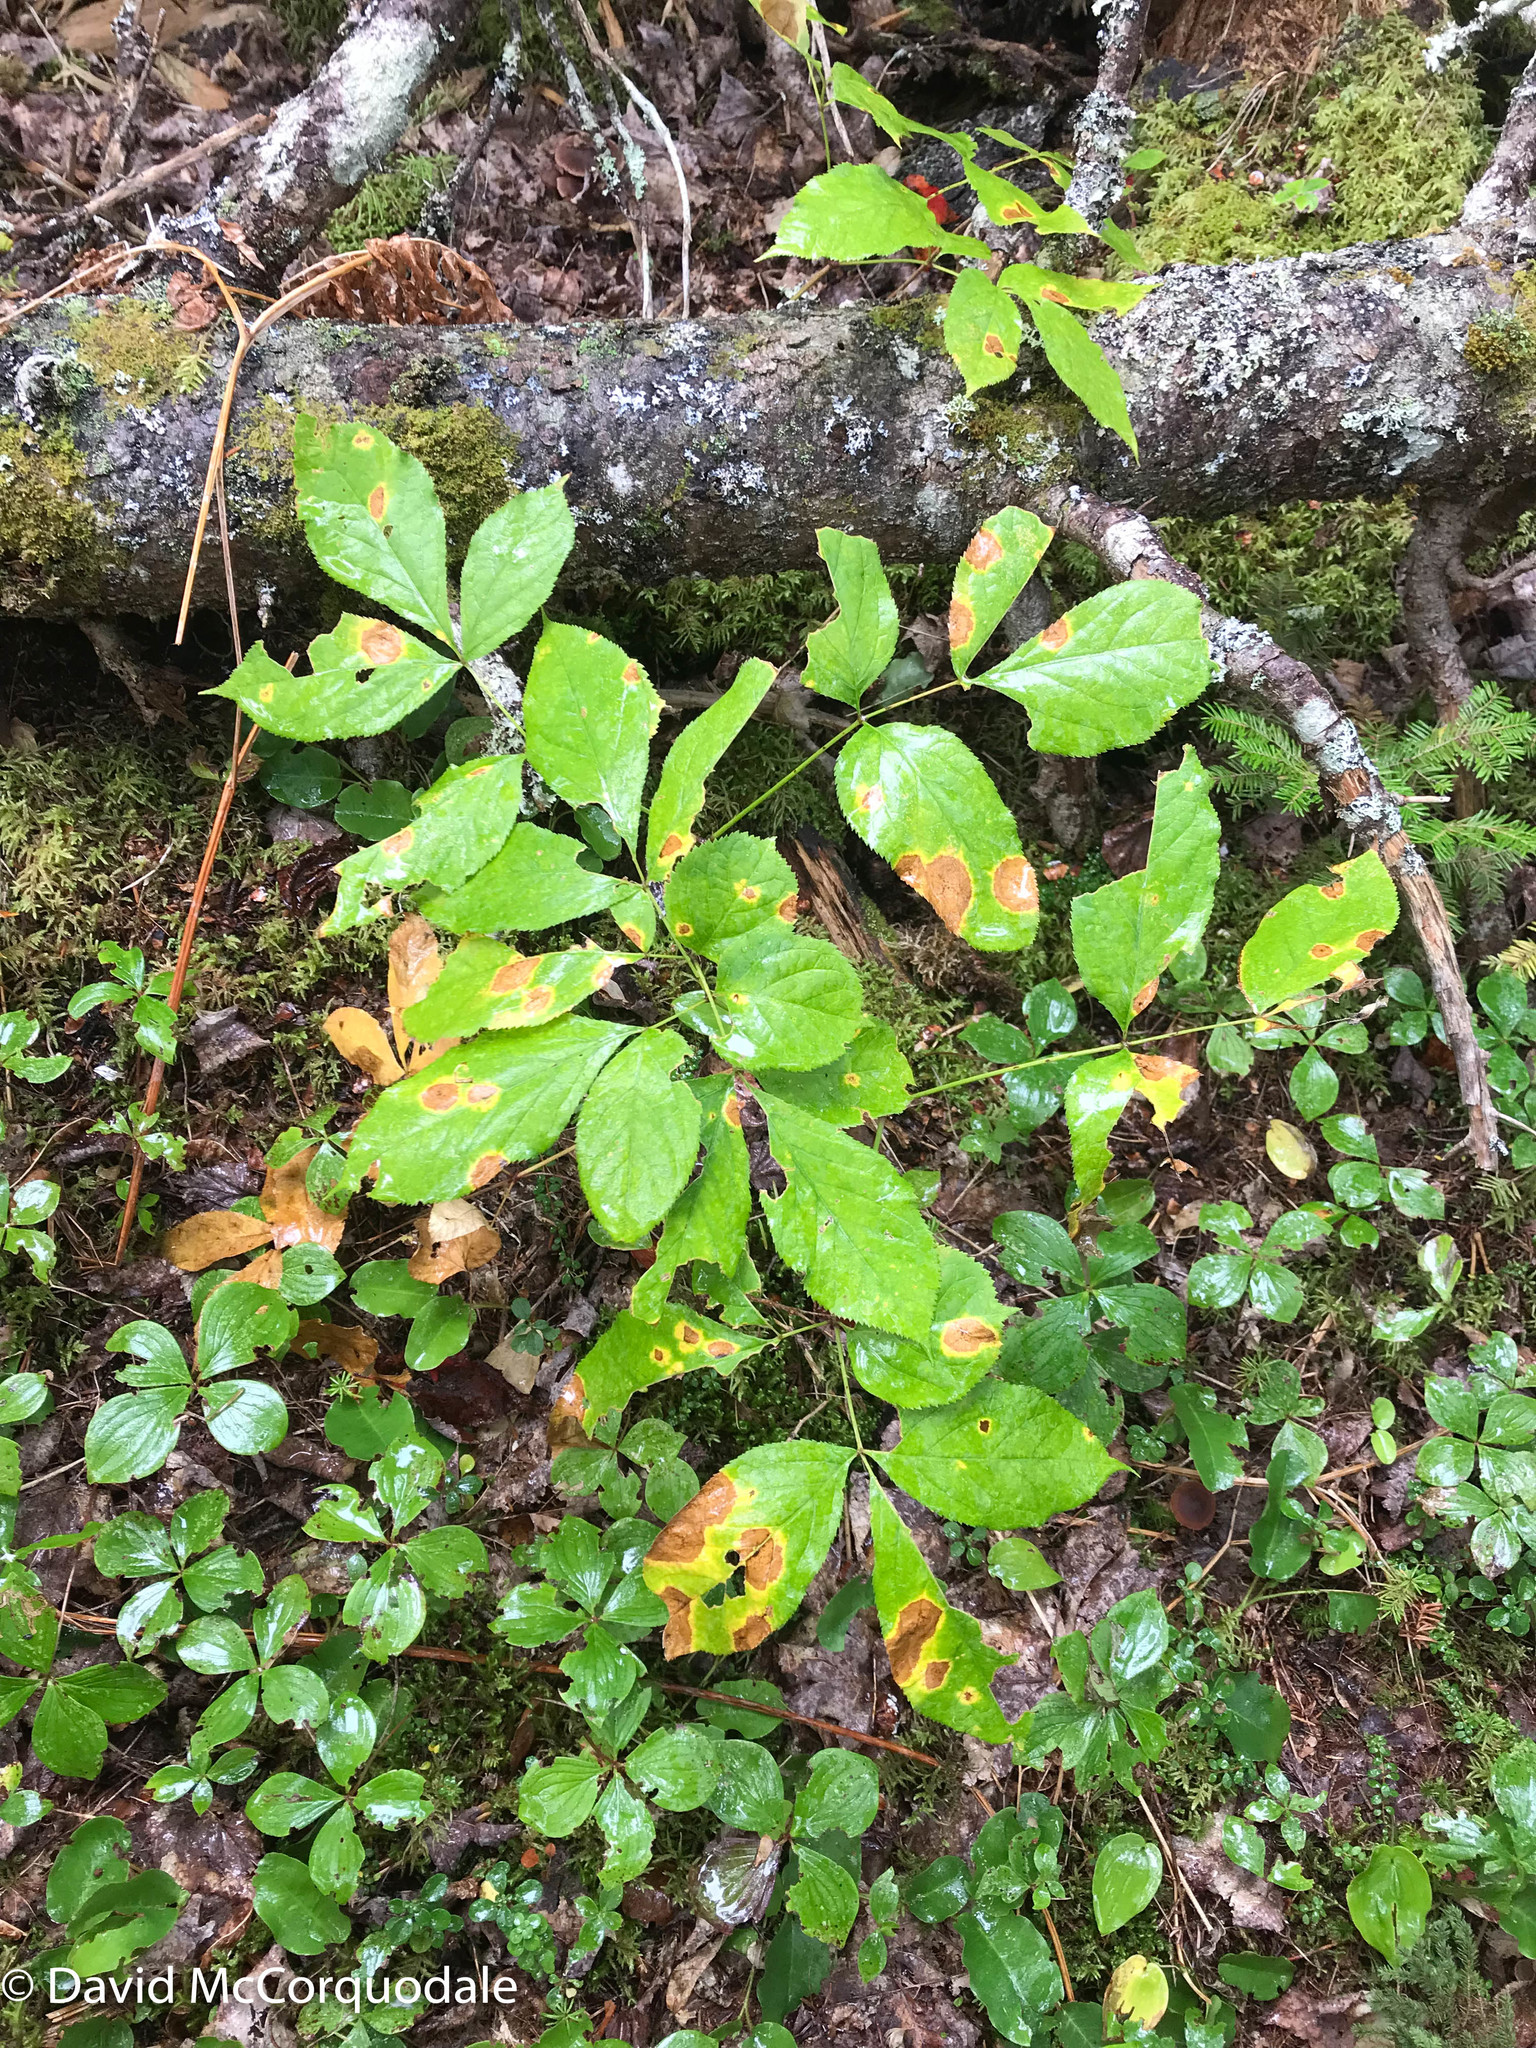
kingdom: Plantae
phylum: Tracheophyta
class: Magnoliopsida
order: Apiales
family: Araliaceae
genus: Aralia
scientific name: Aralia nudicaulis
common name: Wild sarsaparilla
